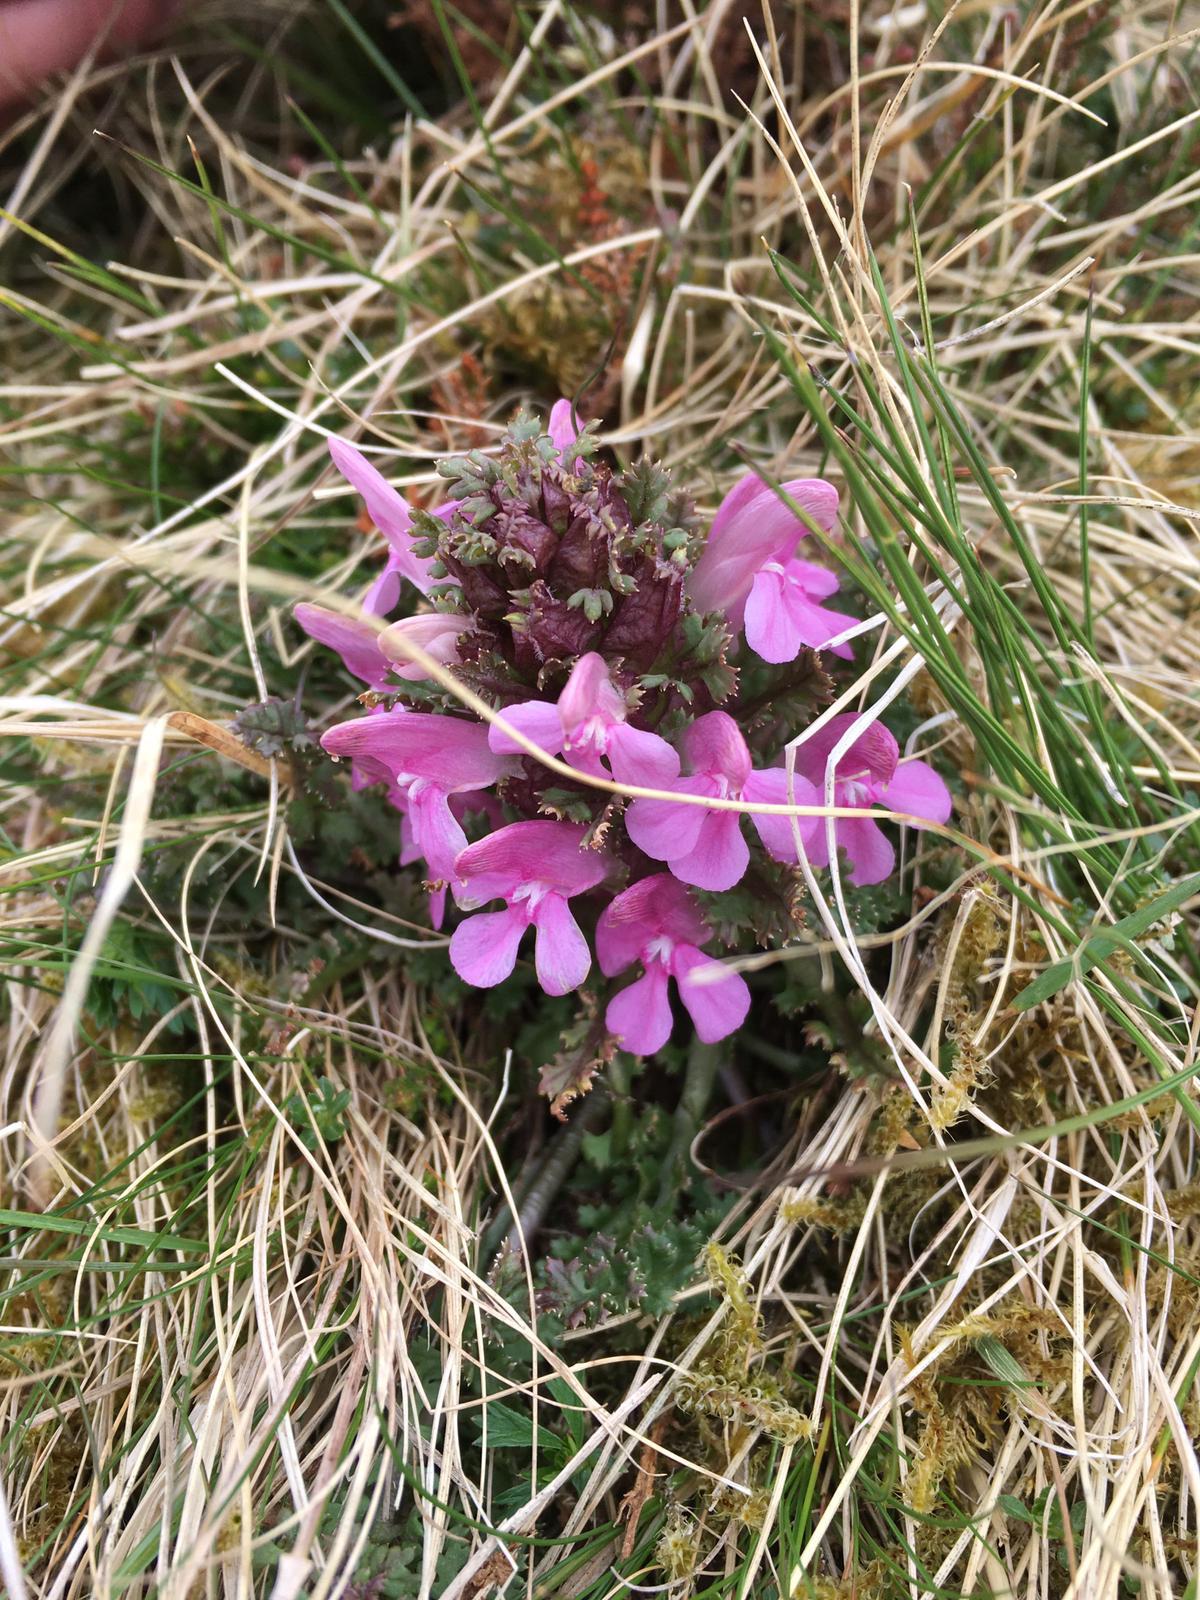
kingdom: Plantae
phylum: Tracheophyta
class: Magnoliopsida
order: Lamiales
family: Orobanchaceae
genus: Pedicularis
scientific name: Pedicularis sylvatica
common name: Lousewort
